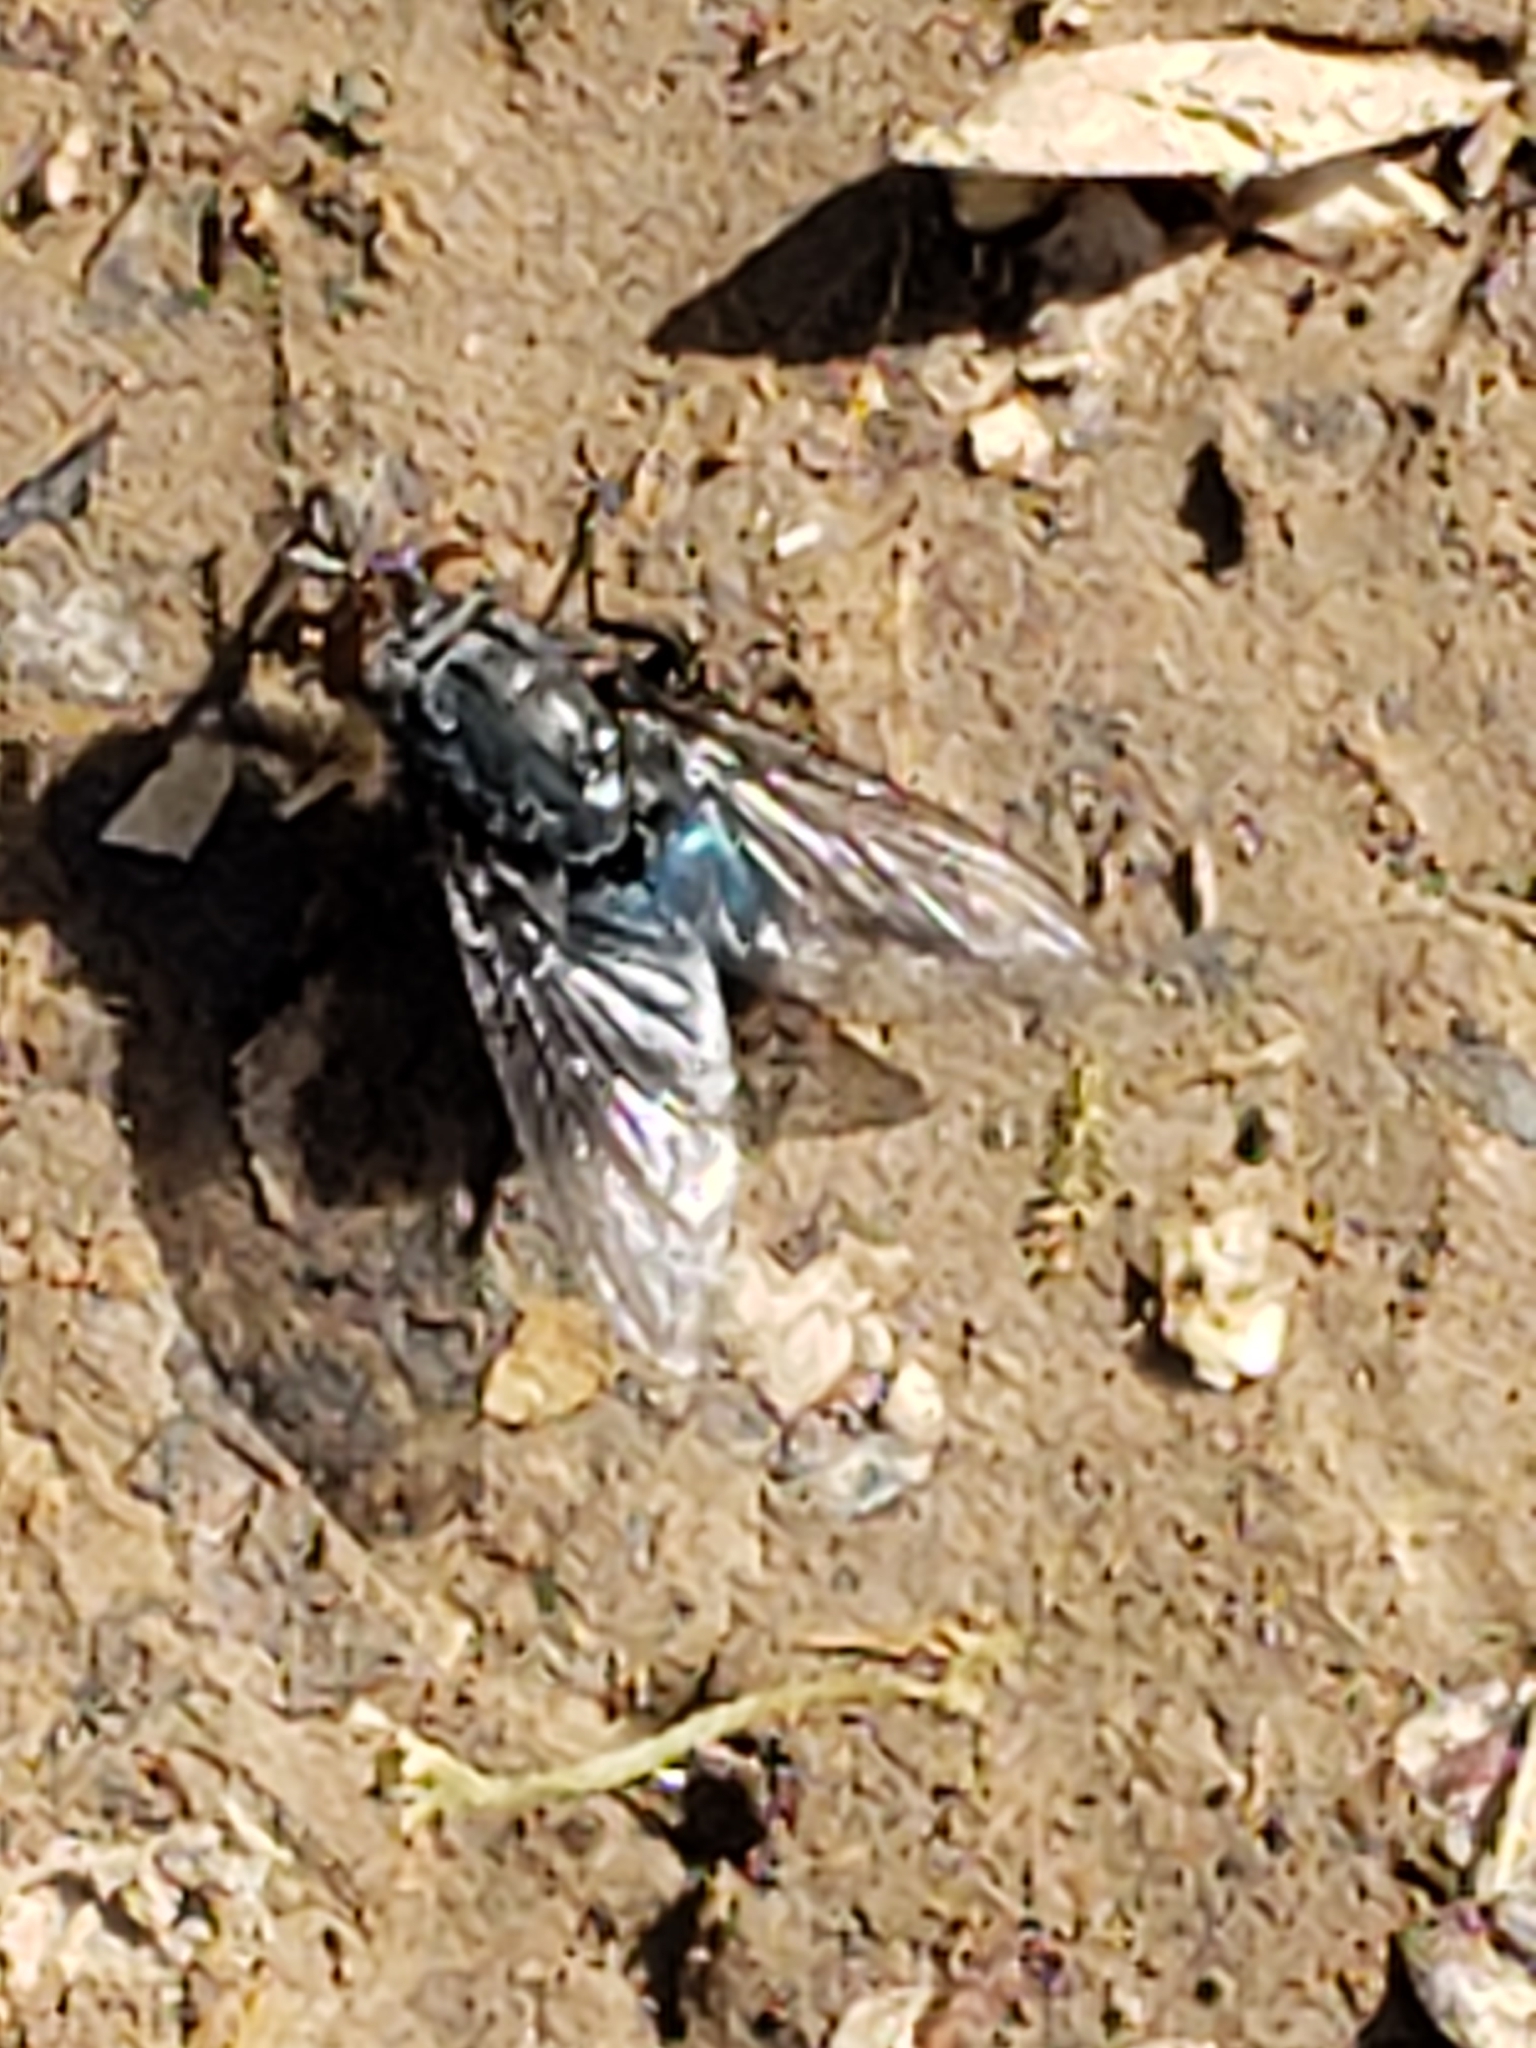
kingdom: Animalia
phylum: Arthropoda
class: Insecta
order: Diptera
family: Calliphoridae
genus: Cynomya
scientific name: Cynomya cadaverina
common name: Shiny blue bottle fly
